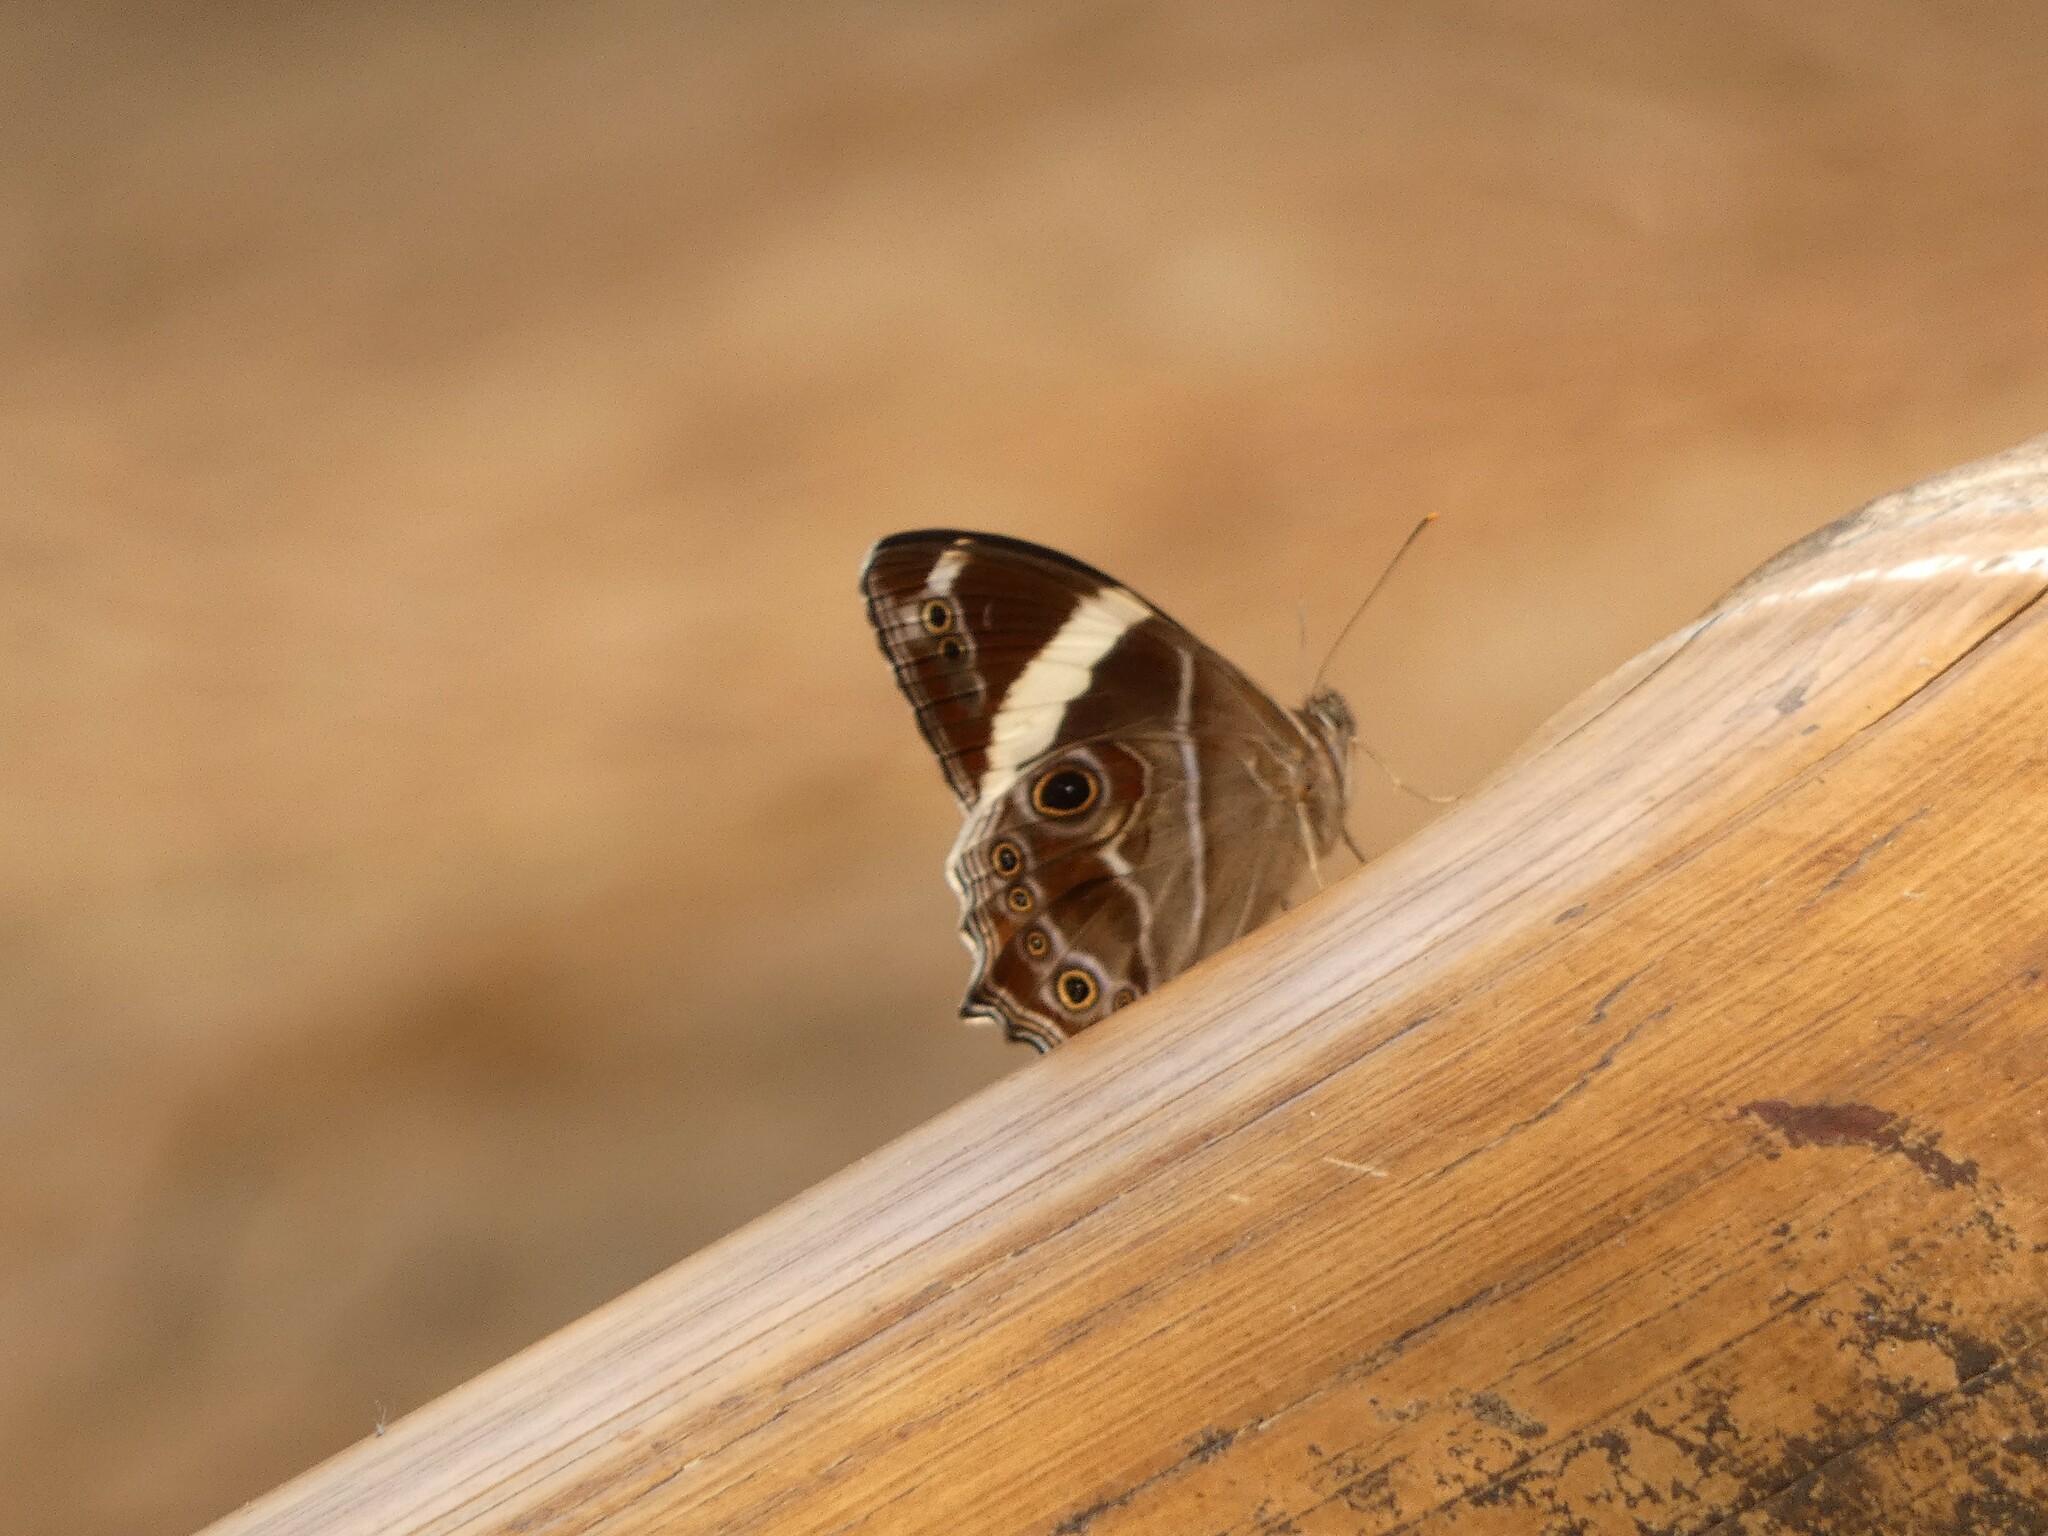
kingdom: Animalia
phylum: Arthropoda
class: Insecta
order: Lepidoptera
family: Nymphalidae
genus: Lethe
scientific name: Lethe confusa
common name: Banded treebrown
